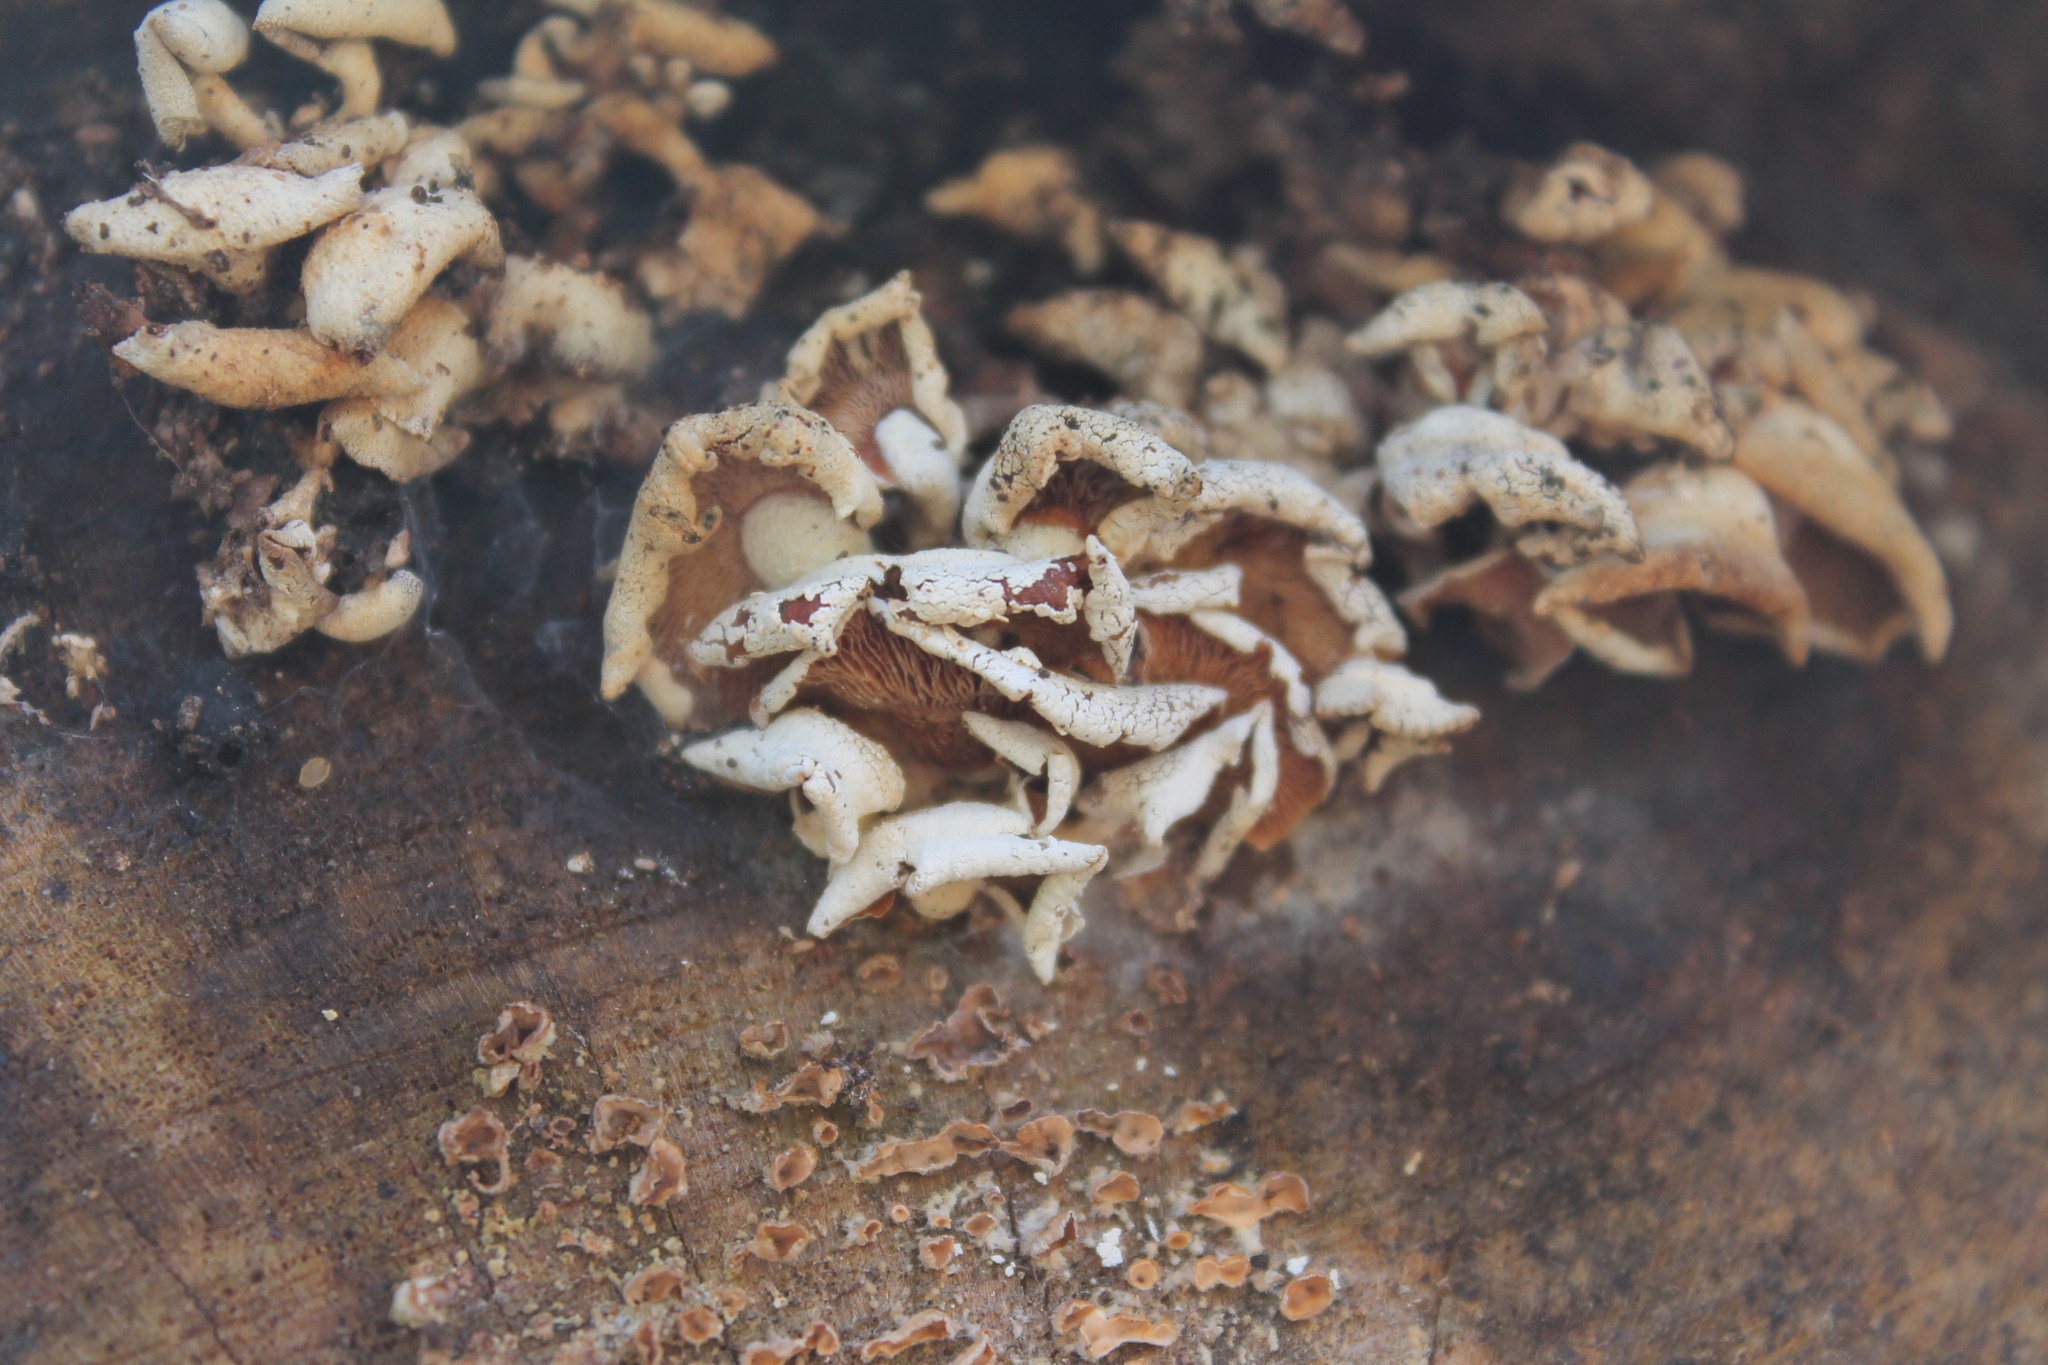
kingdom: Fungi
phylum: Basidiomycota
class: Agaricomycetes
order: Agaricales
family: Mycenaceae
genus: Panellus
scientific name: Panellus stipticus
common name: Bitter oysterling
